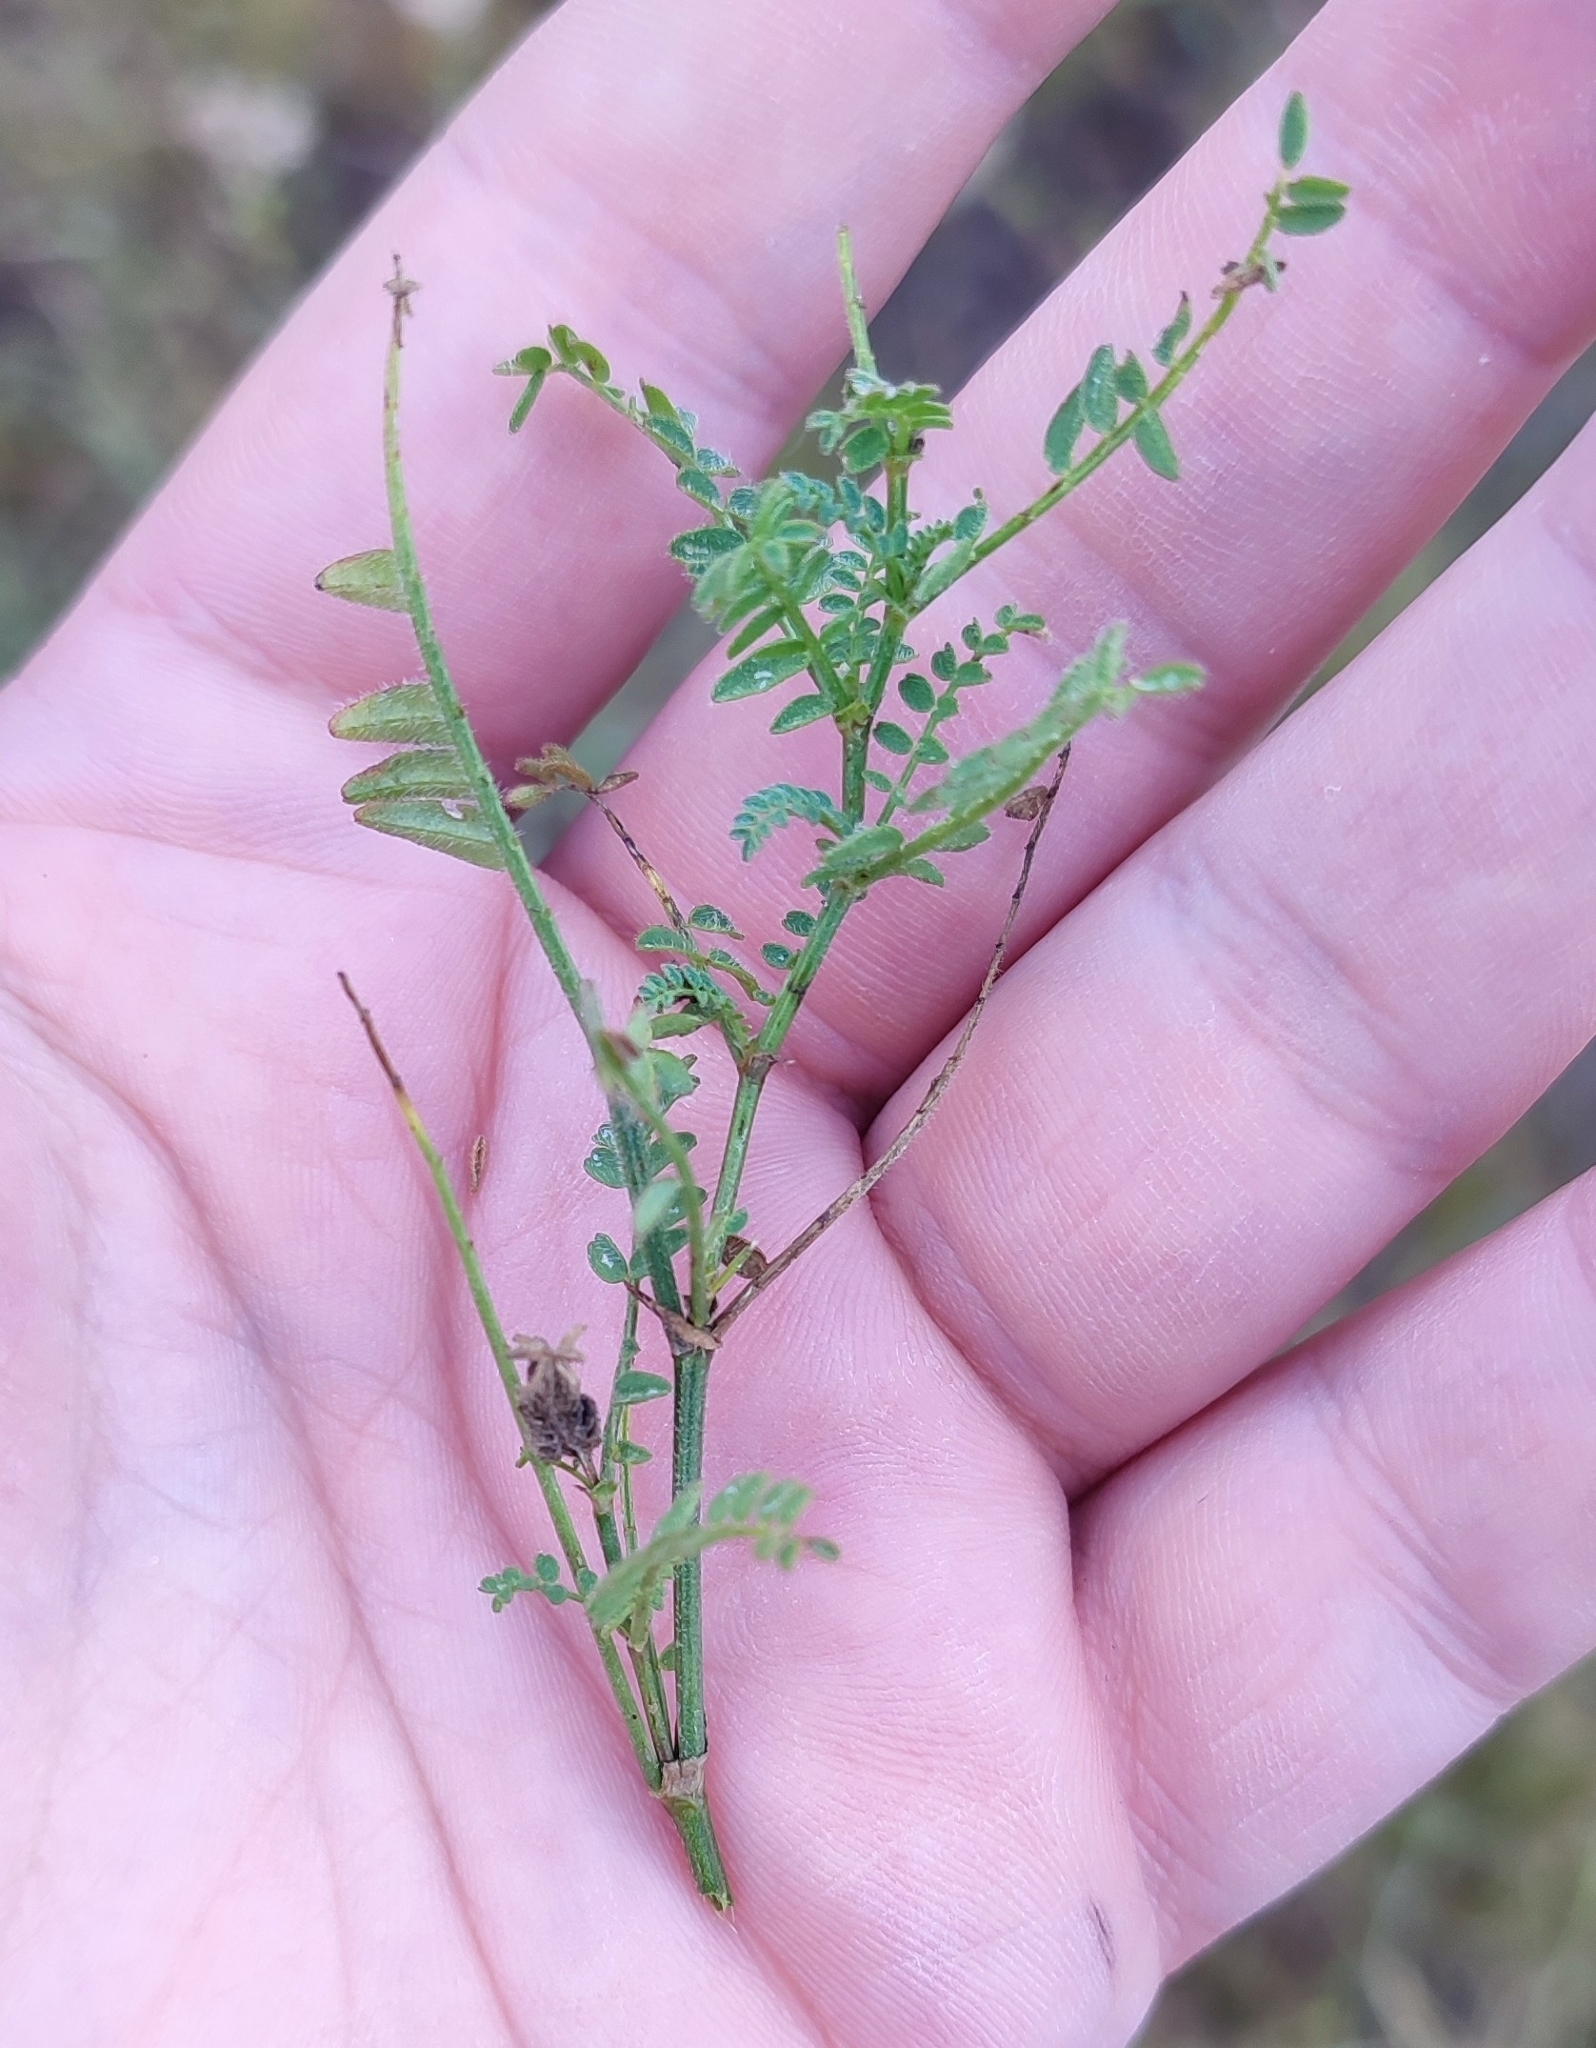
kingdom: Plantae
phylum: Tracheophyta
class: Magnoliopsida
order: Fabales
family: Fabaceae
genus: Astragalus
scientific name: Astragalus danicus
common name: Purple milk-vetch
